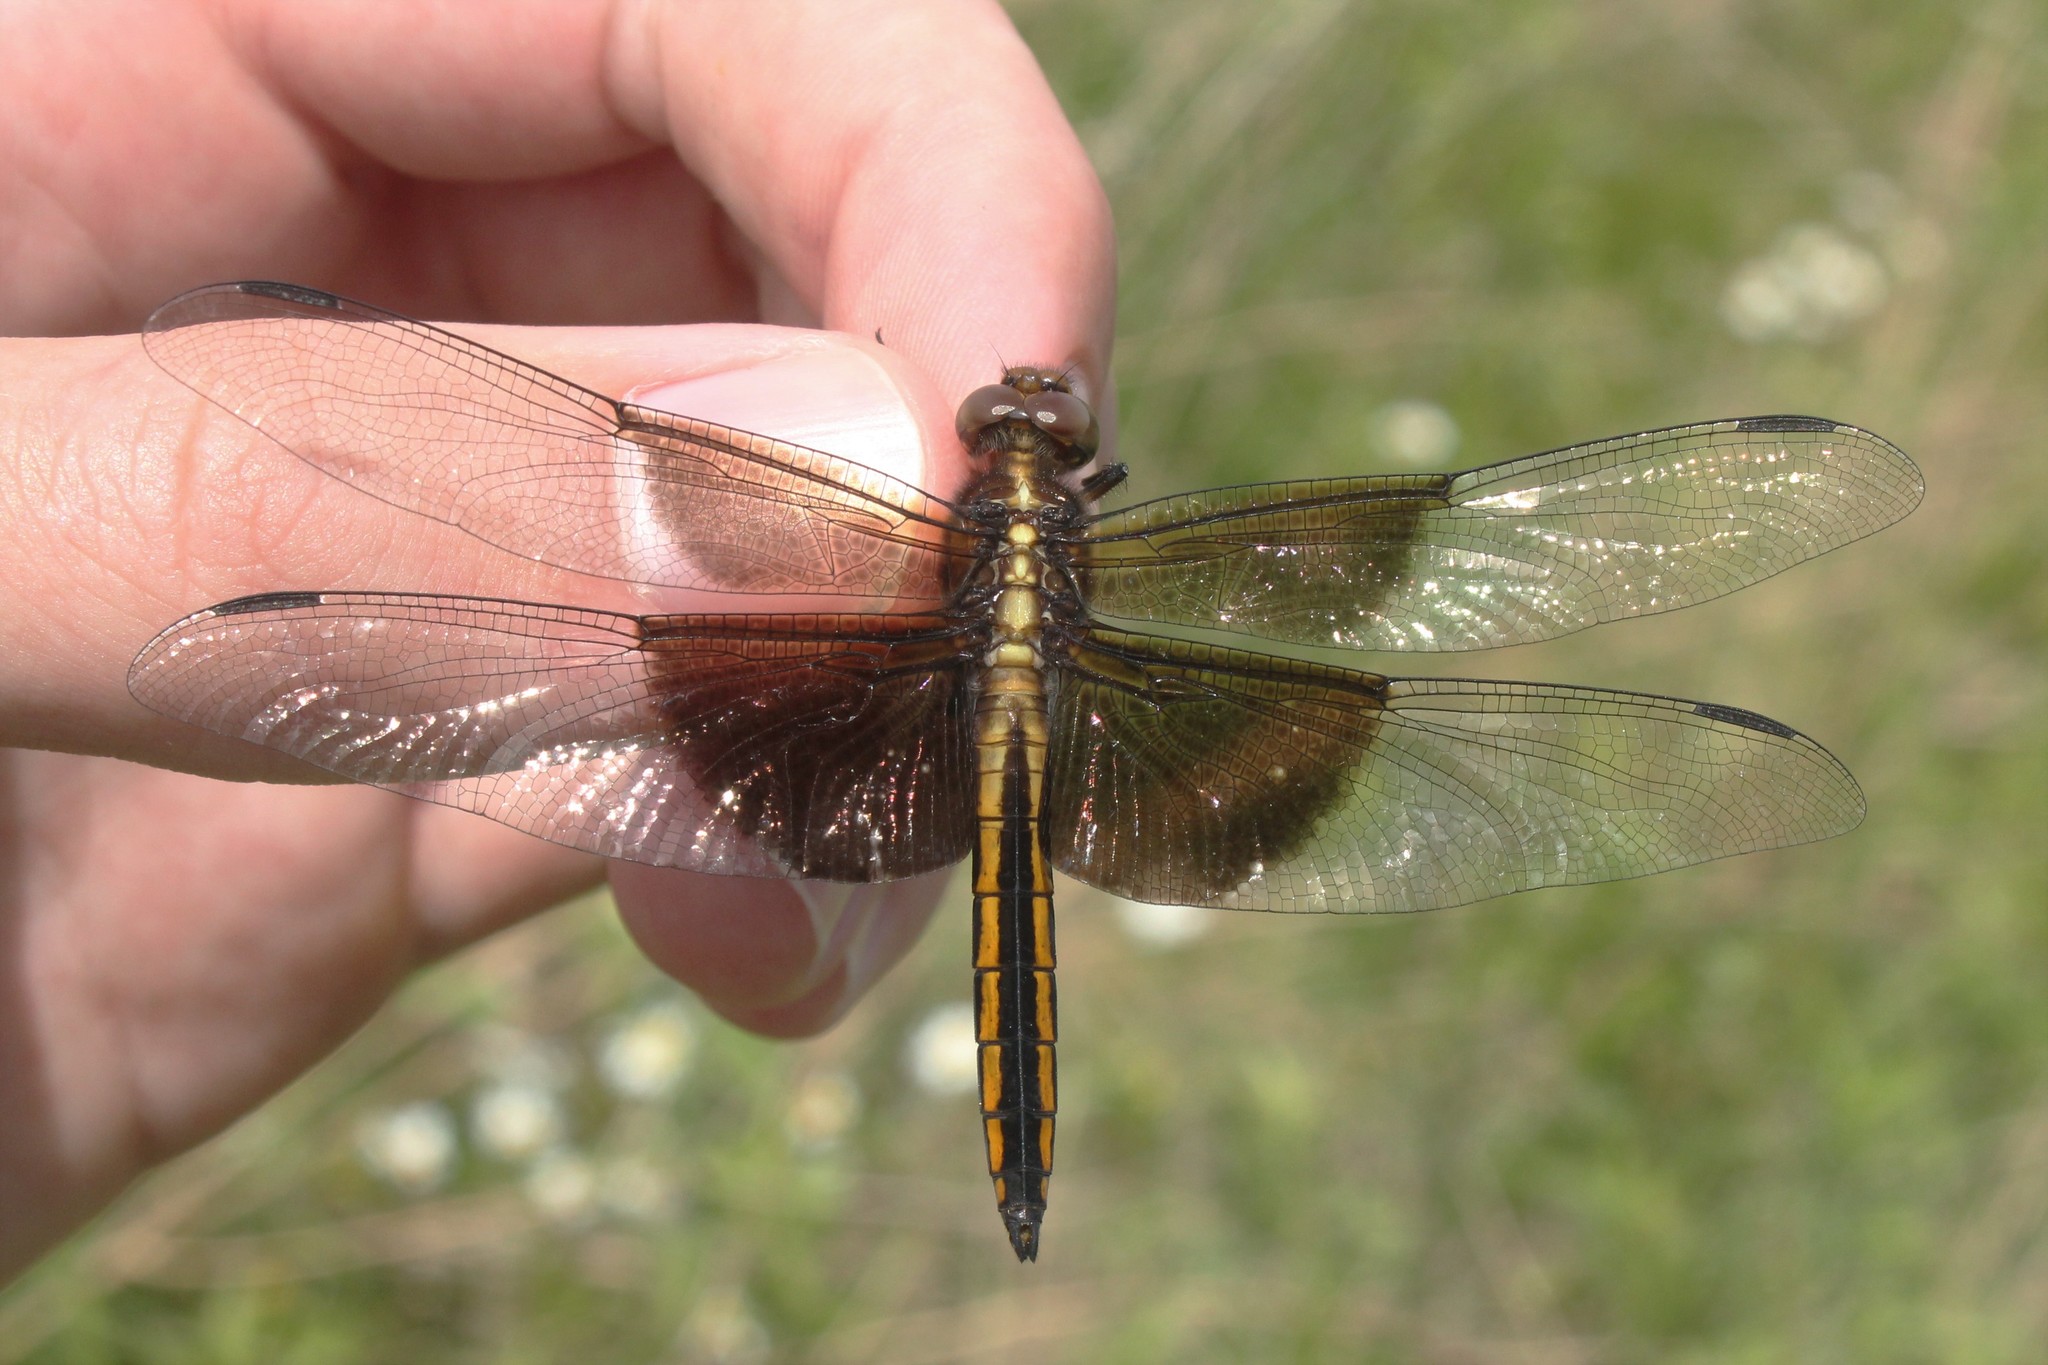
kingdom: Animalia
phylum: Arthropoda
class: Insecta
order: Odonata
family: Libellulidae
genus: Libellula
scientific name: Libellula luctuosa
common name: Widow skimmer
